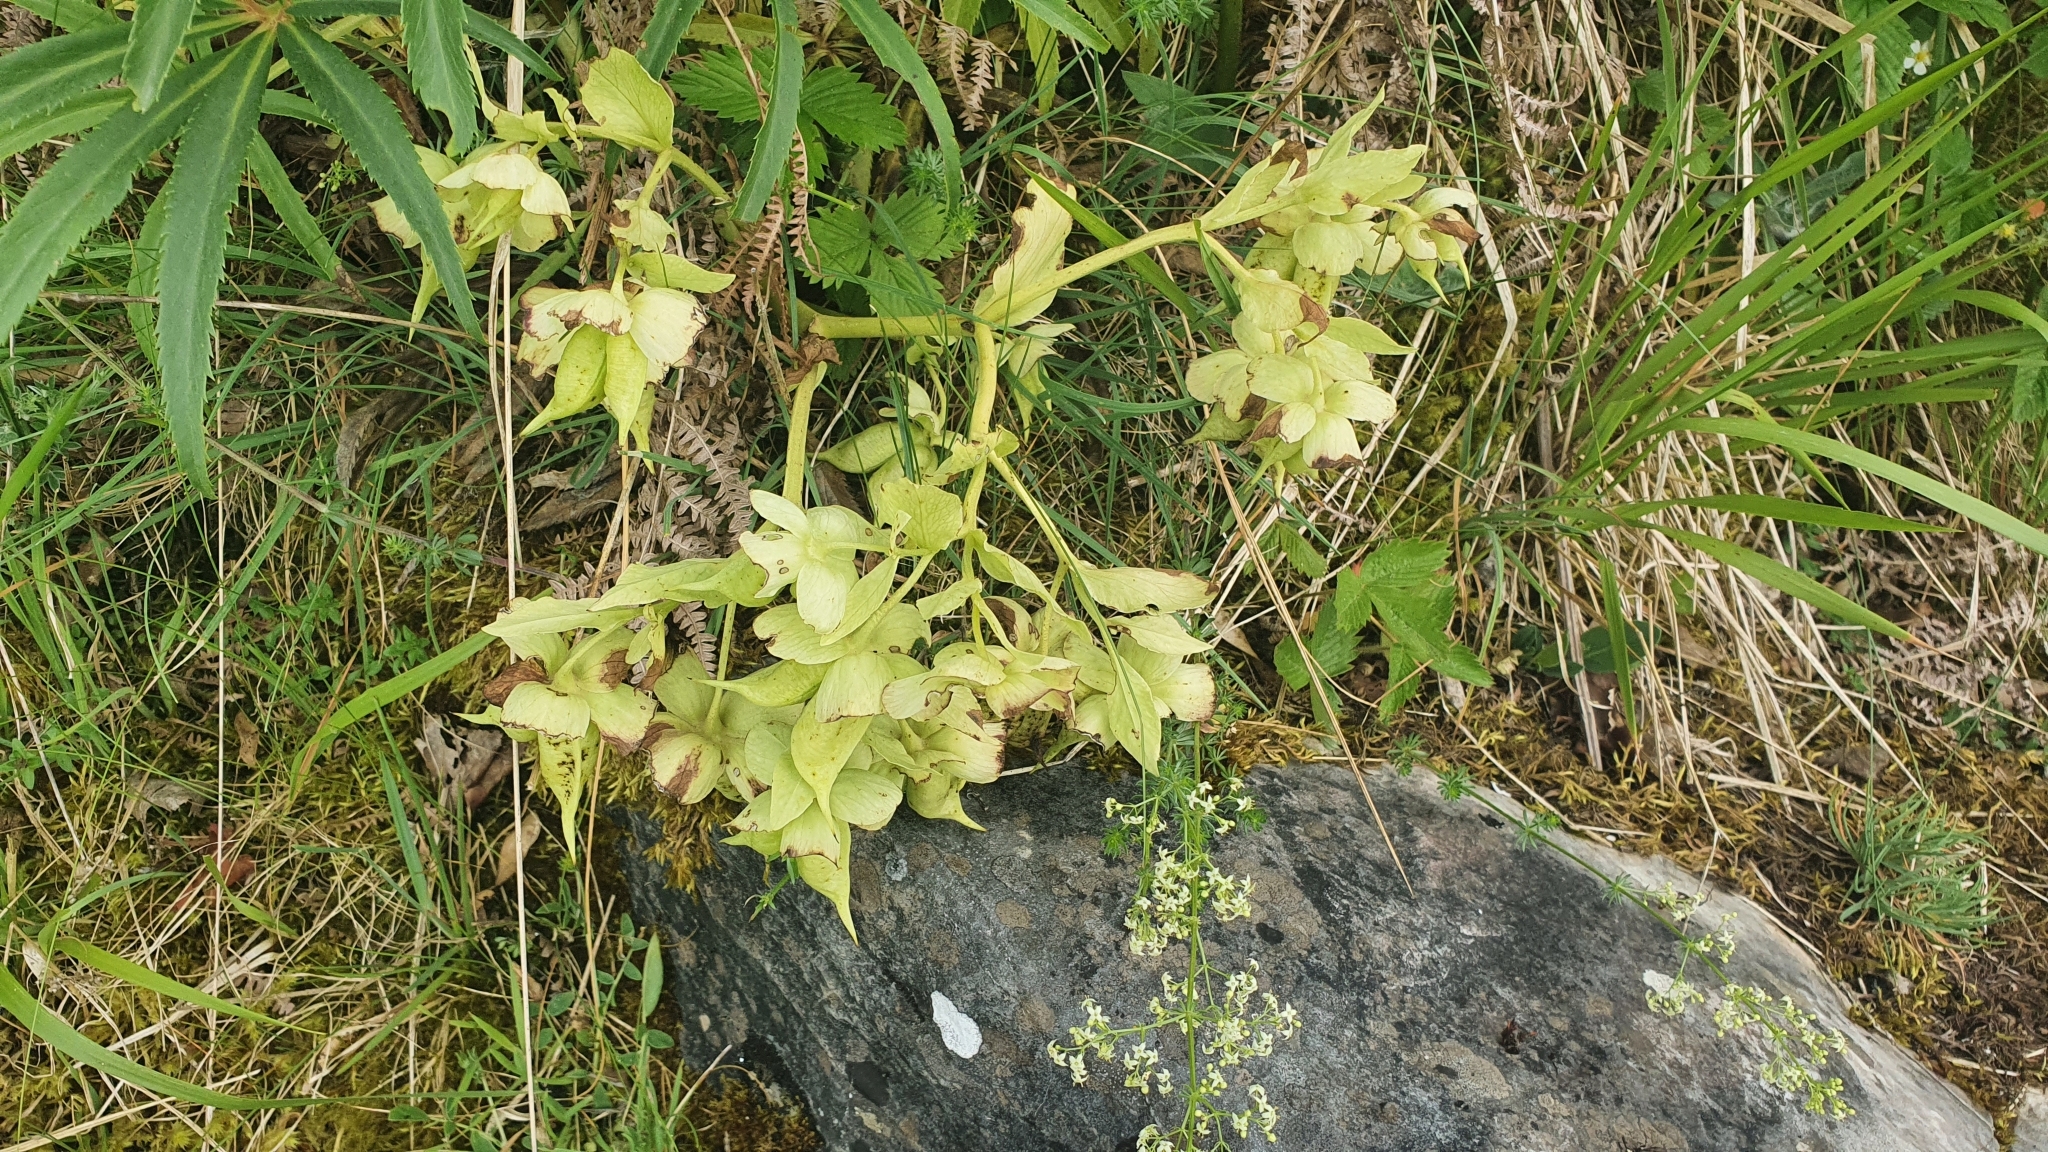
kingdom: Plantae
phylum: Tracheophyta
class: Magnoliopsida
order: Ranunculales
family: Ranunculaceae
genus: Helleborus
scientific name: Helleborus foetidus
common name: Stinking hellebore
